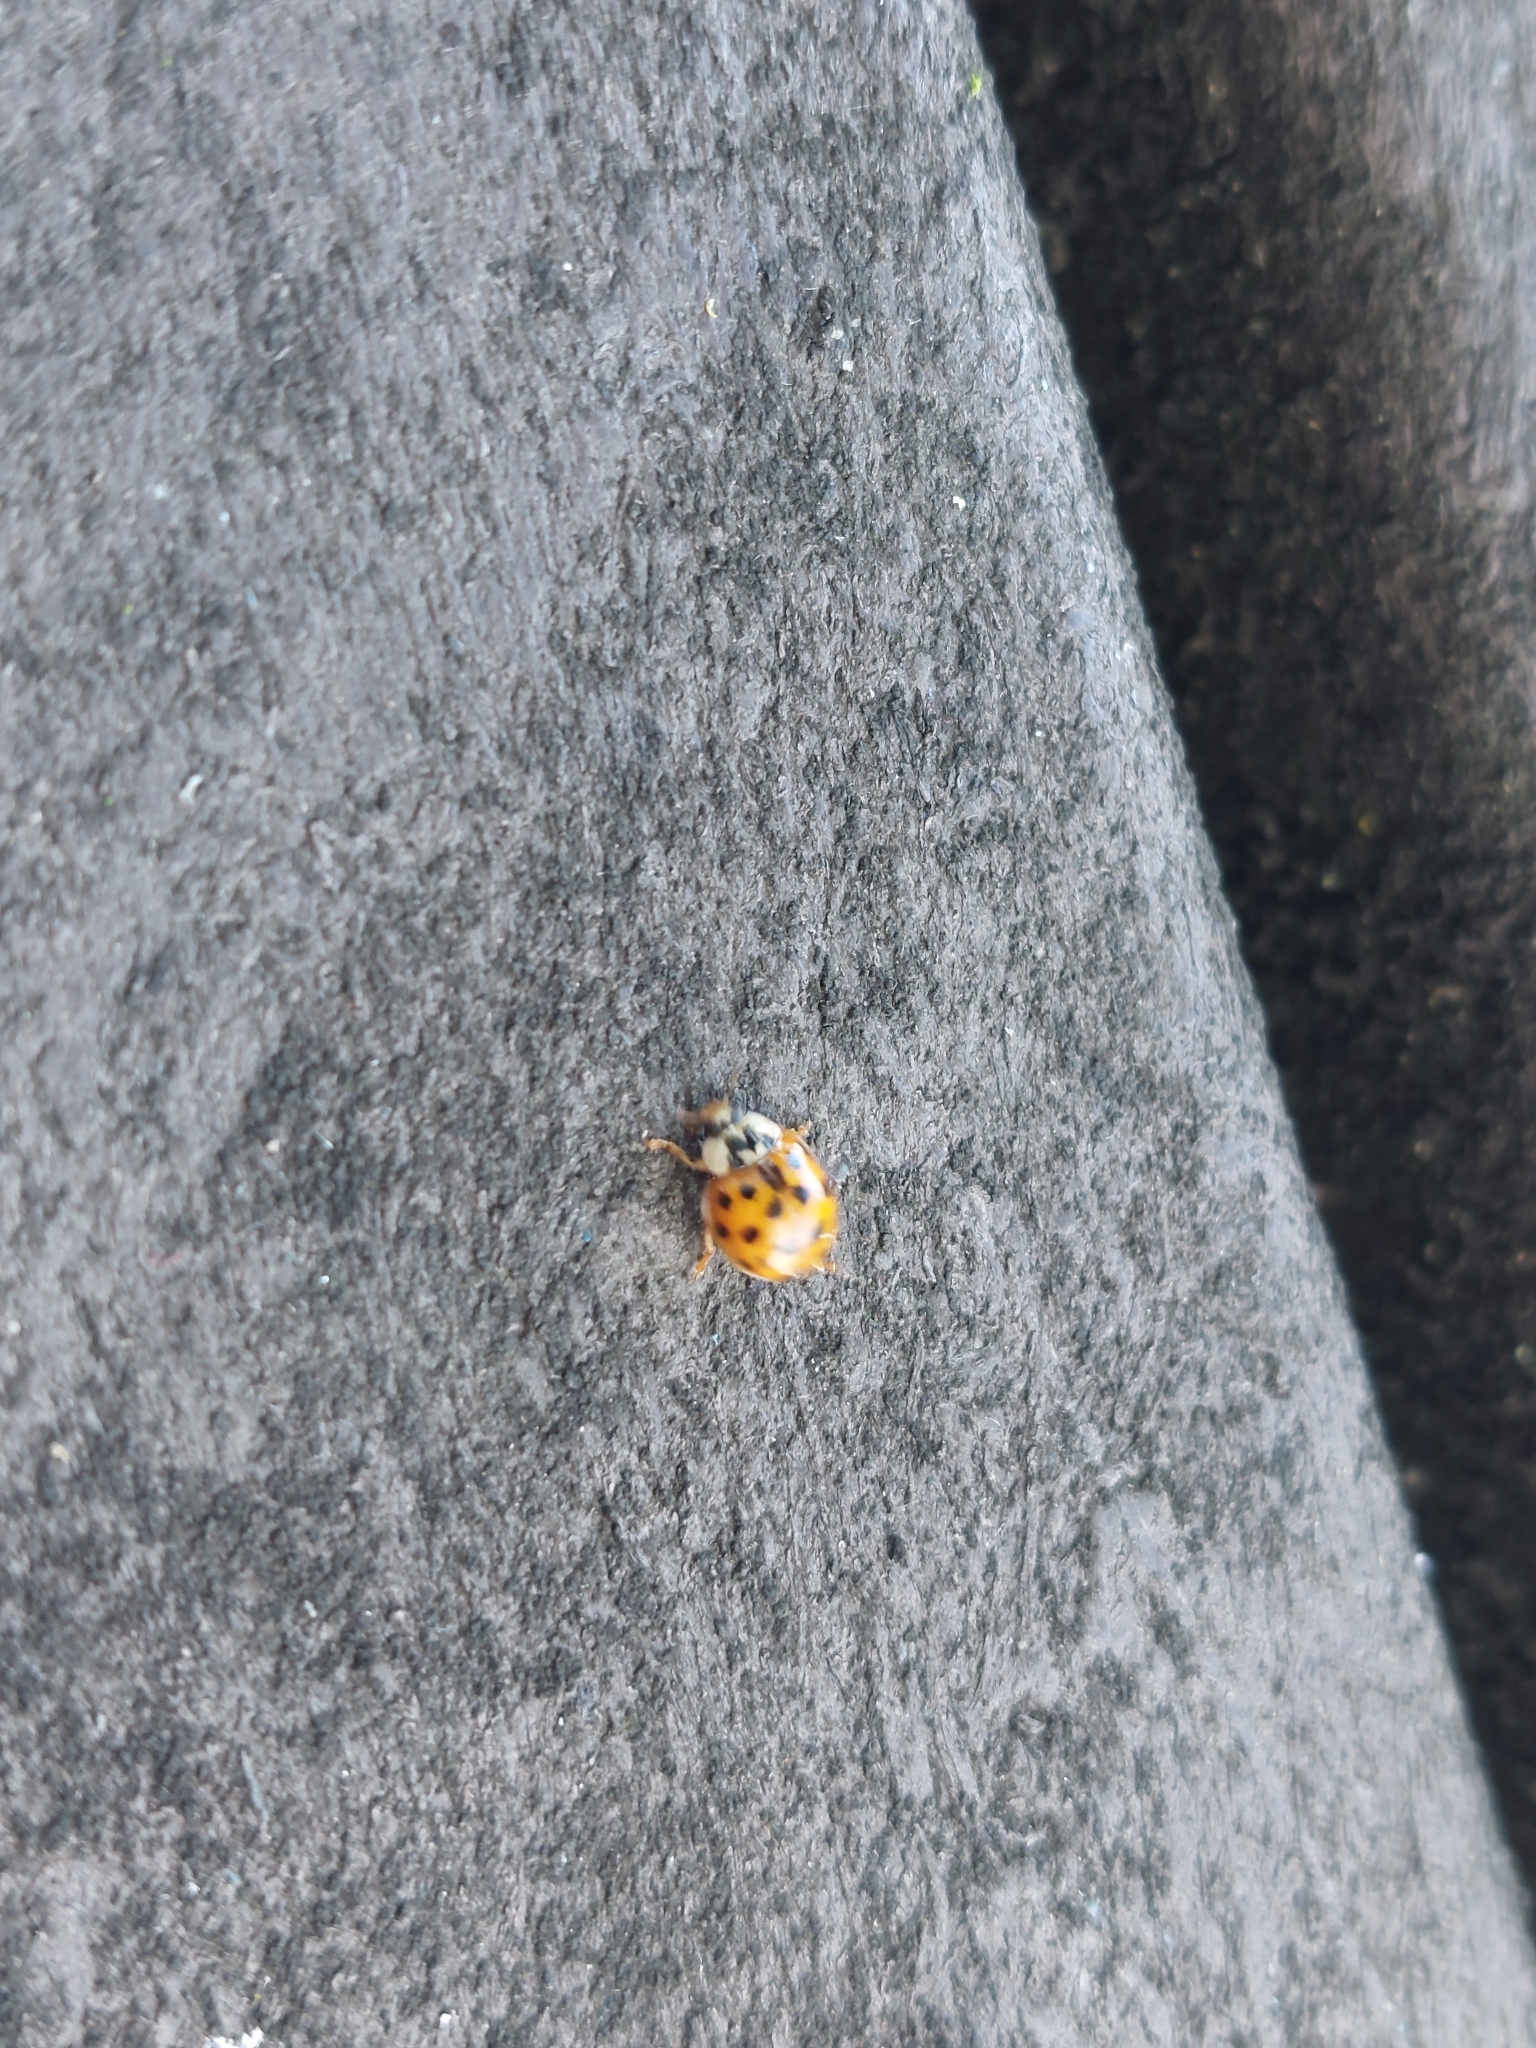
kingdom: Animalia
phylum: Arthropoda
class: Insecta
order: Coleoptera
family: Coccinellidae
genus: Harmonia
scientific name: Harmonia axyridis
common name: Harlequin ladybird
